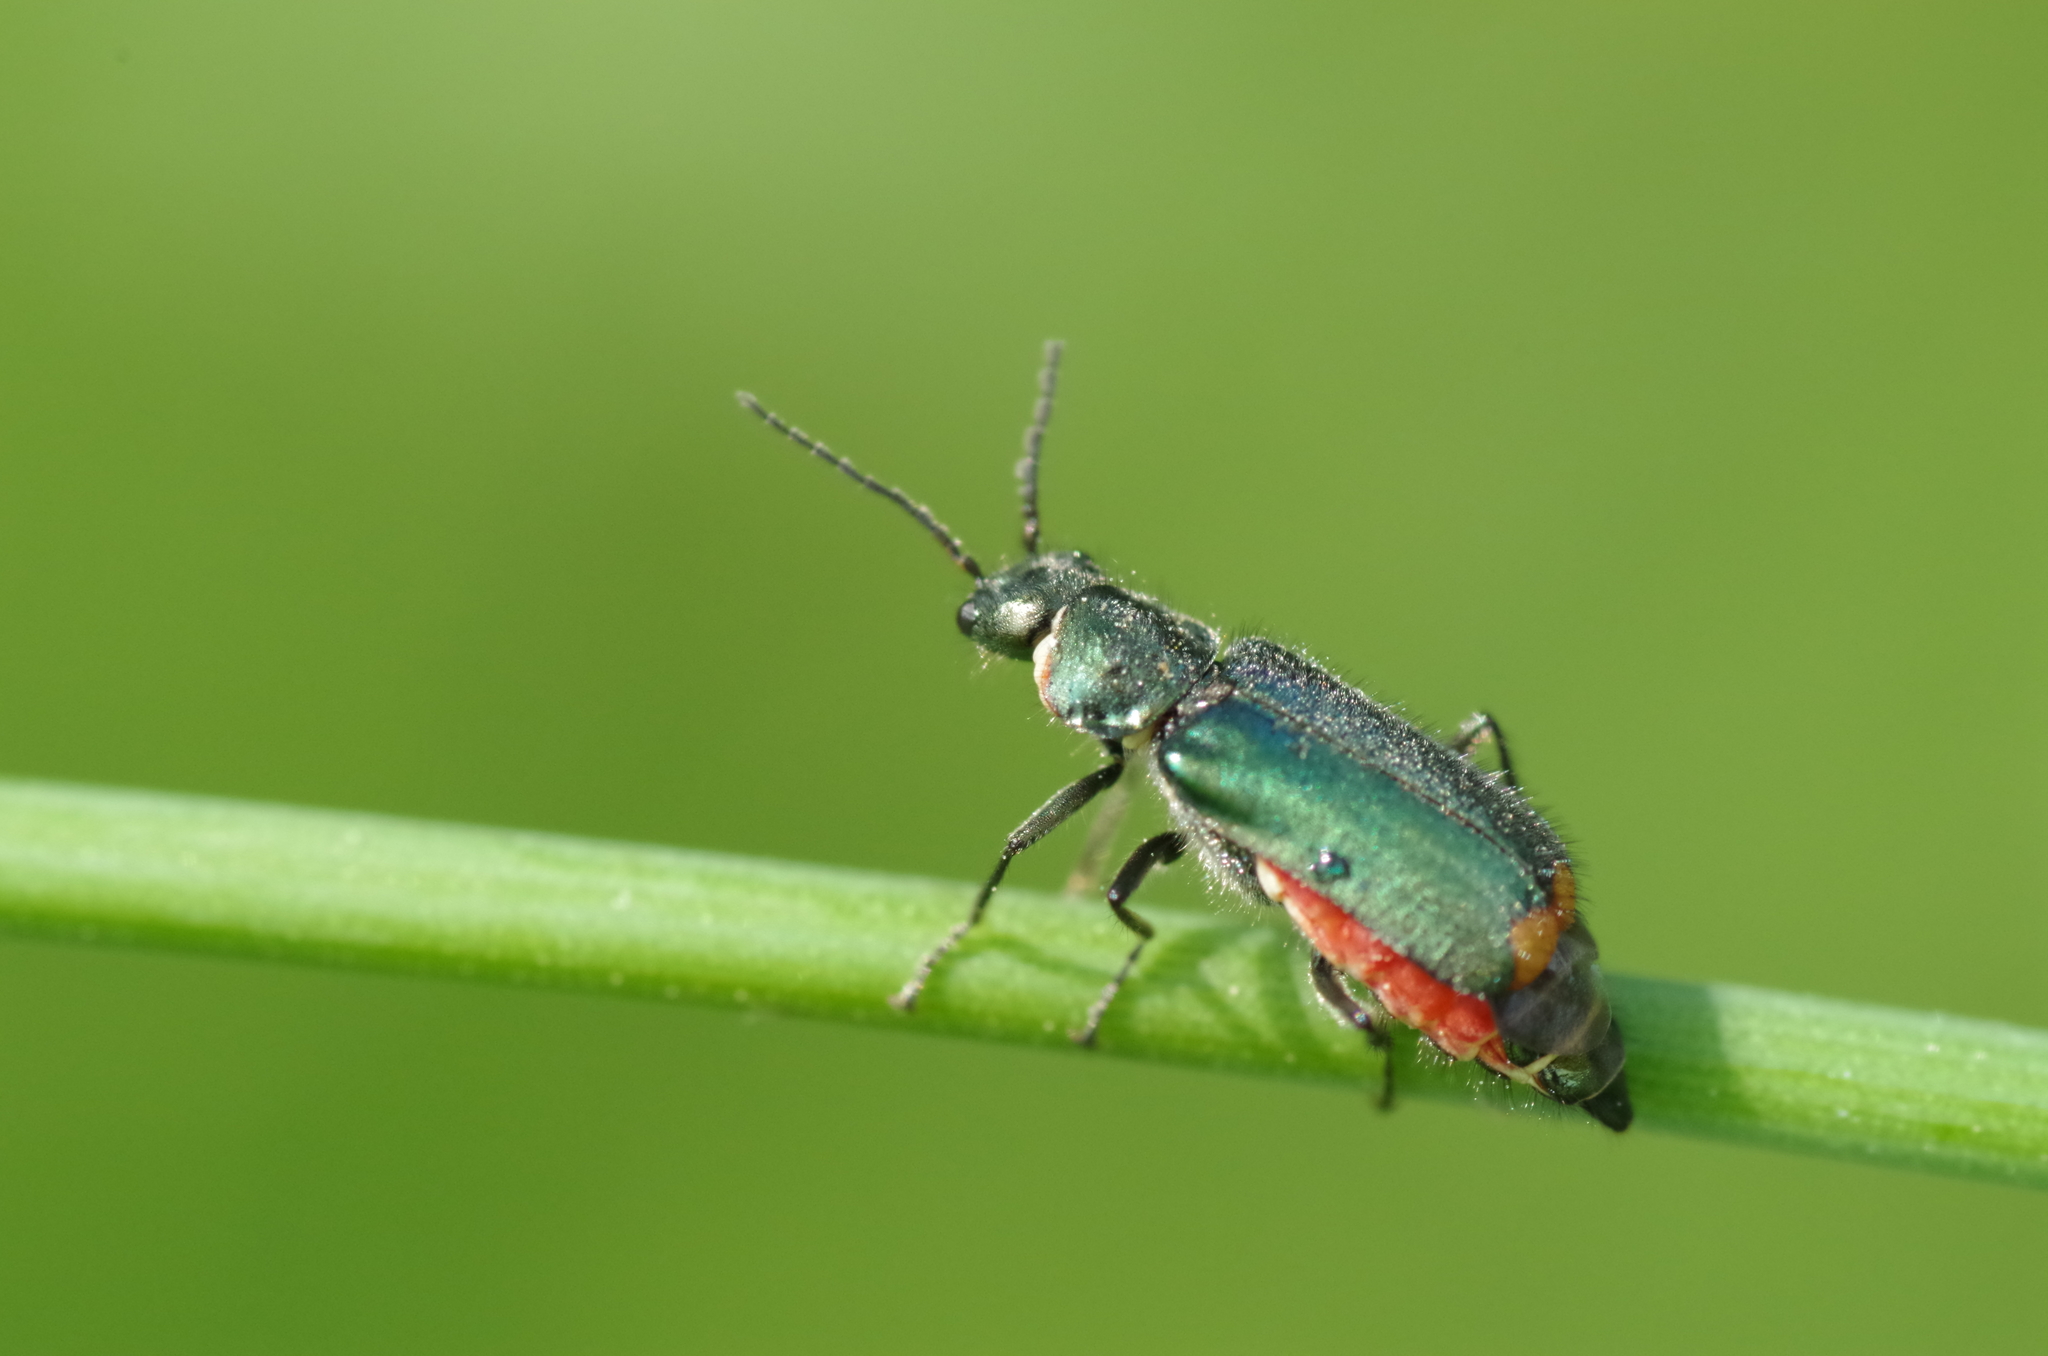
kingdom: Animalia
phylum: Arthropoda
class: Insecta
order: Coleoptera
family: Melyridae
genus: Malachius
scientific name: Malachius bipustulatus
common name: Malachite beetle
